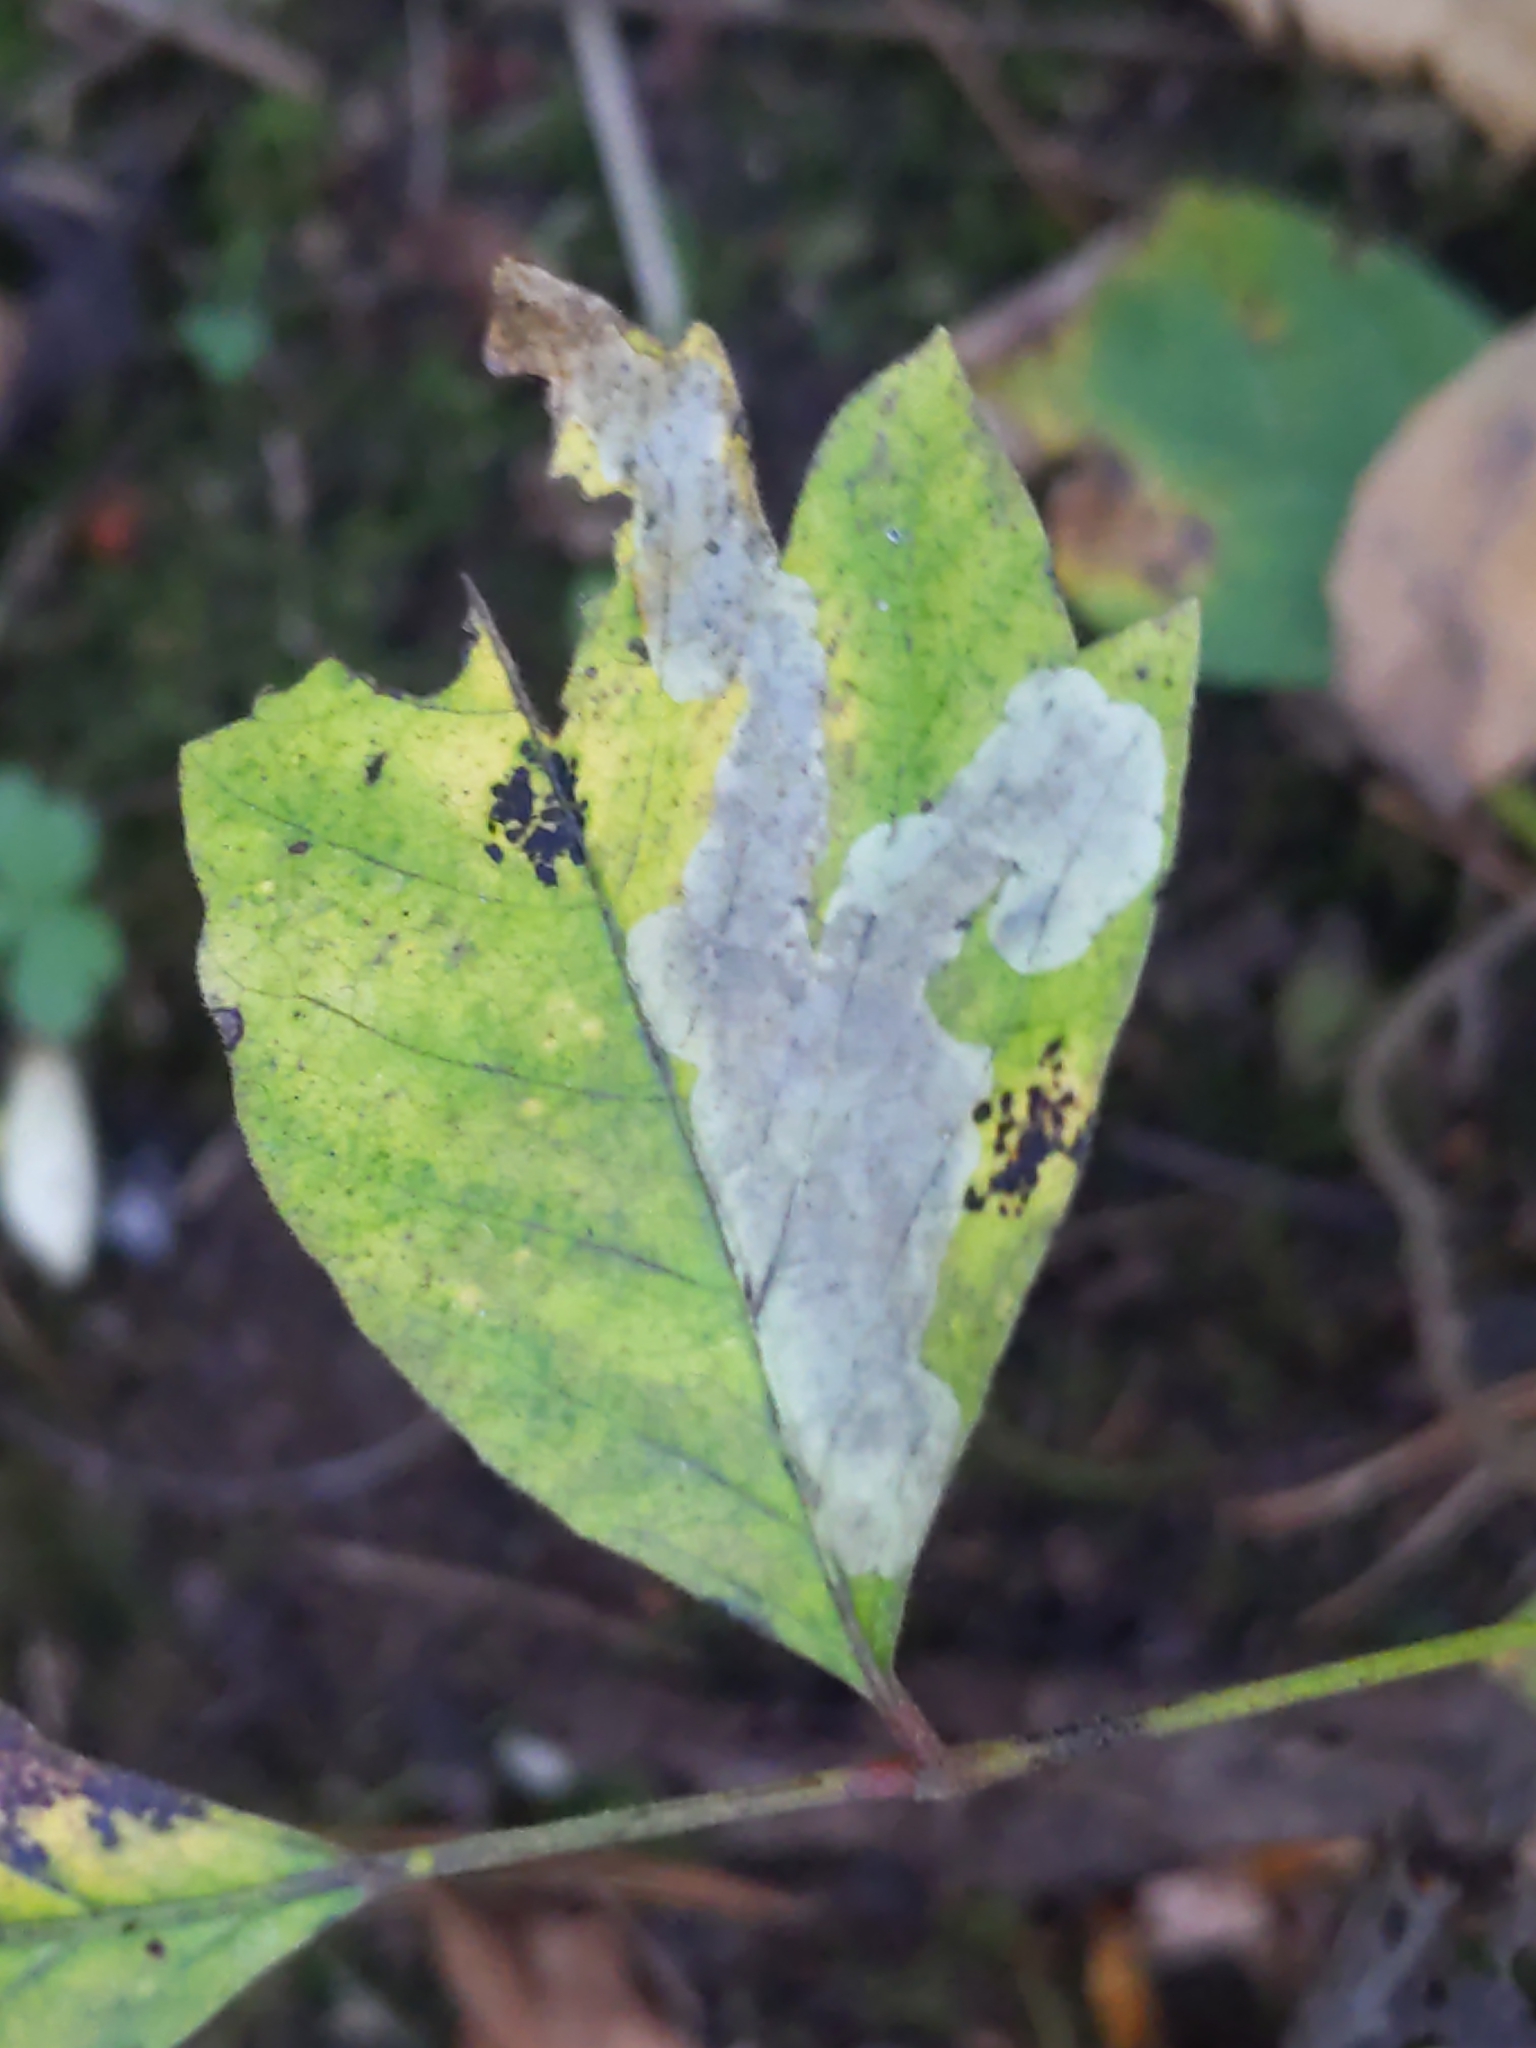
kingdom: Animalia
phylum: Arthropoda
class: Insecta
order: Lepidoptera
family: Gracillariidae
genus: Cameraria
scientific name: Cameraria guttifinitella
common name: Poison ivy leaf-miner moth
